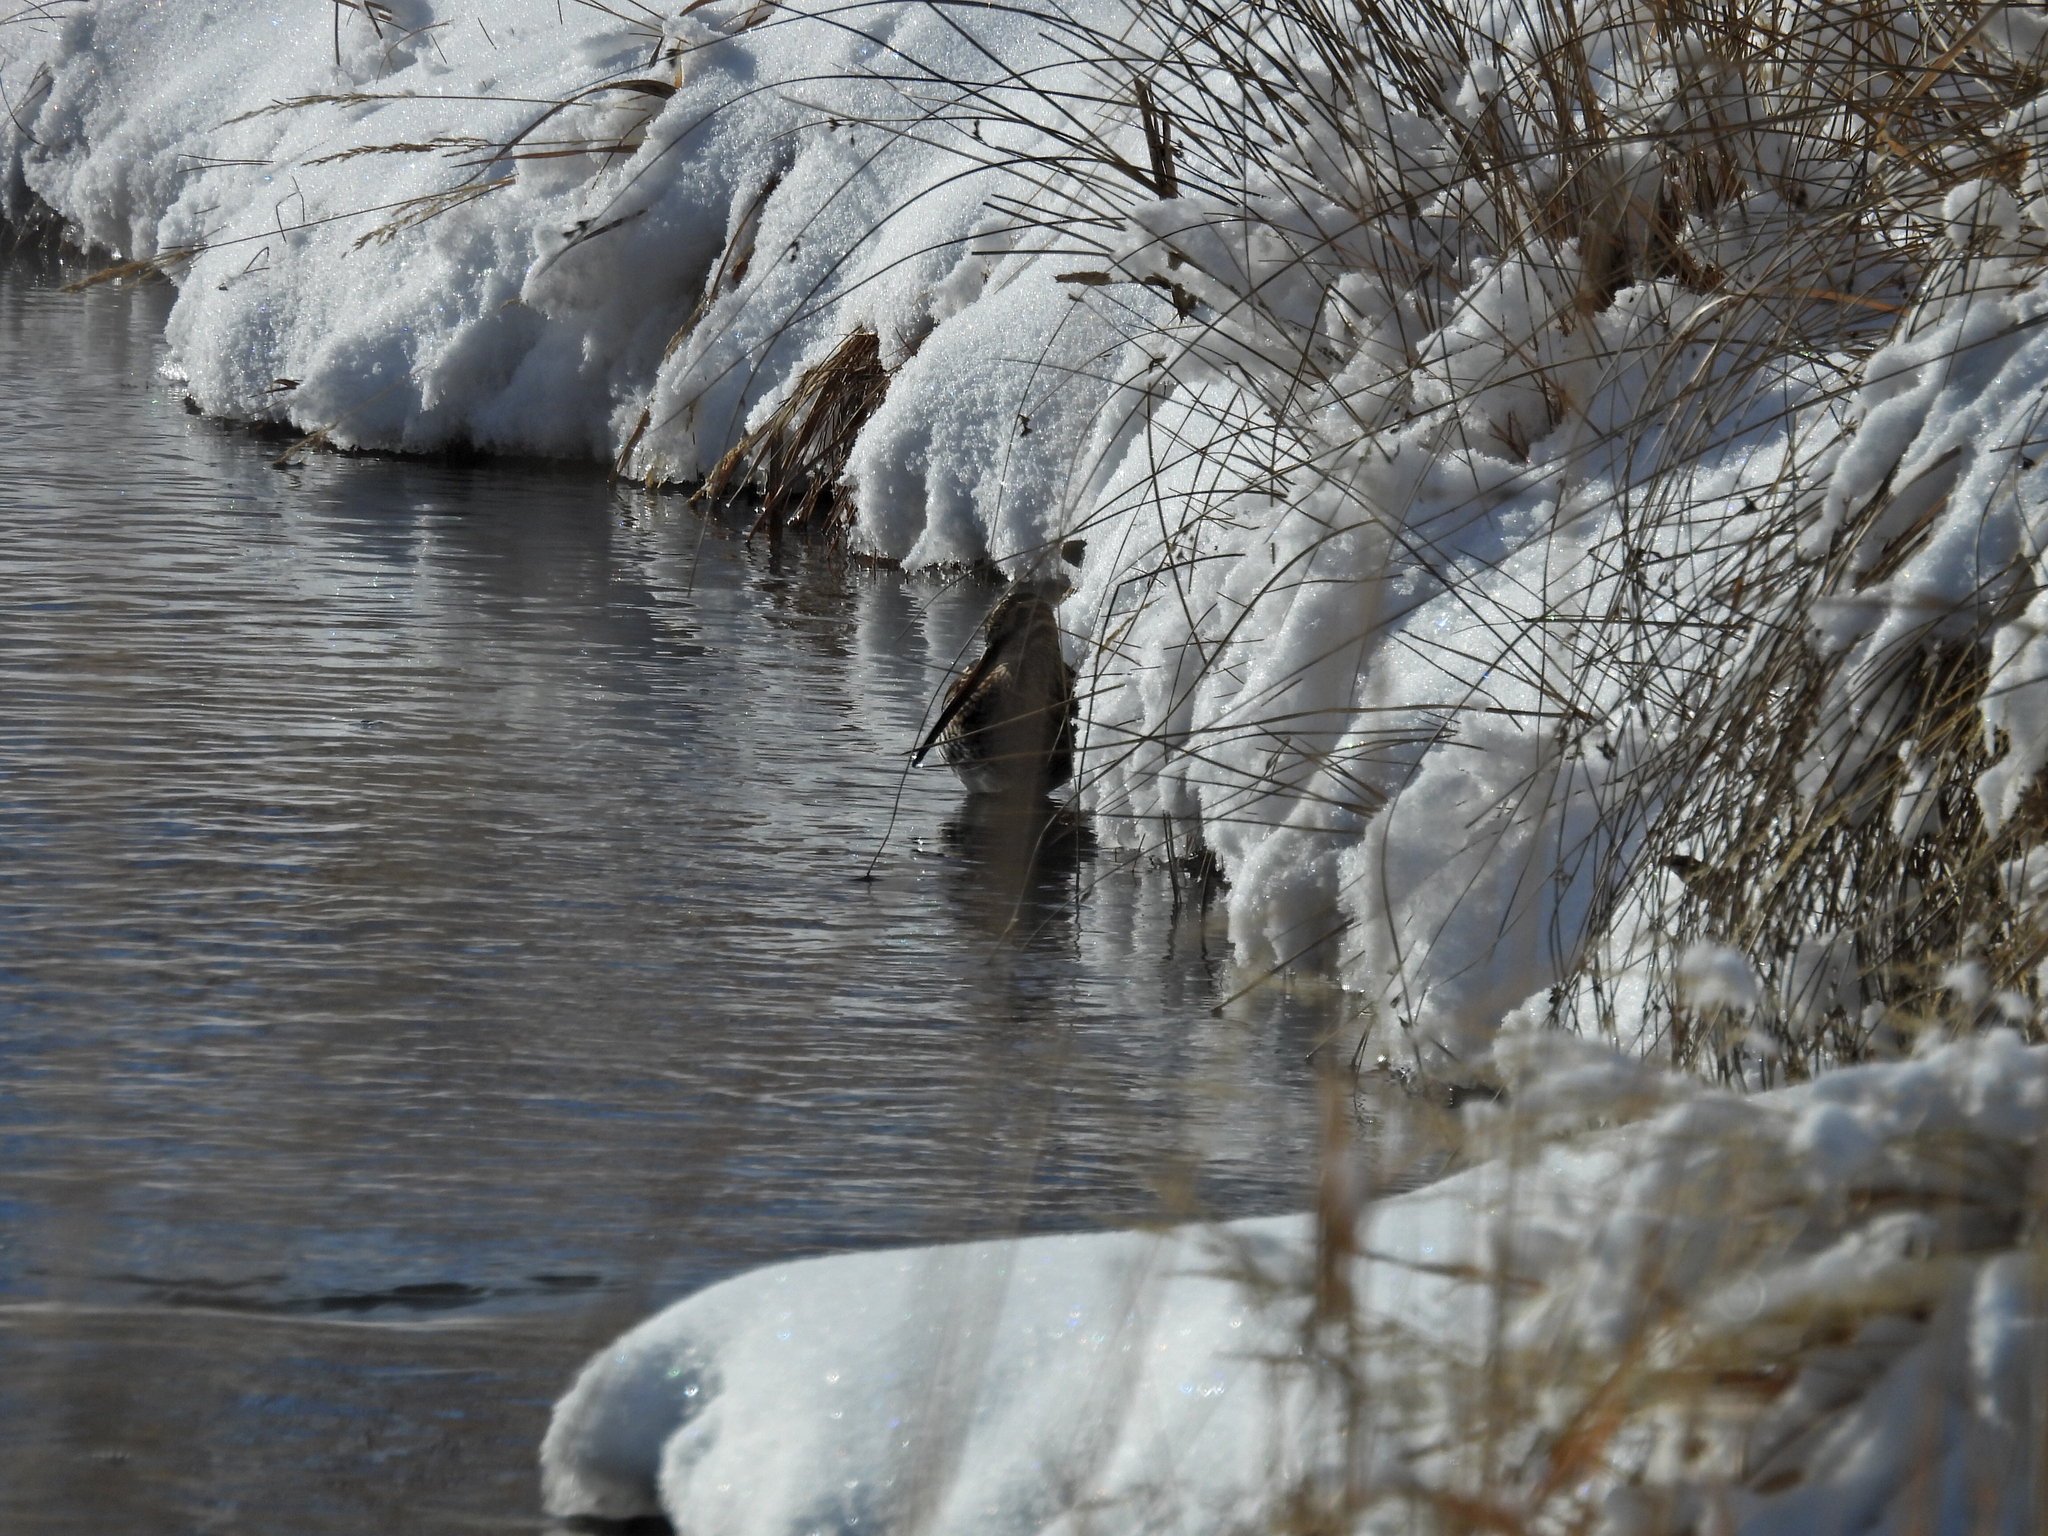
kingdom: Animalia
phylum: Chordata
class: Aves
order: Charadriiformes
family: Scolopacidae
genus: Gallinago
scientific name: Gallinago delicata
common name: Wilson's snipe
